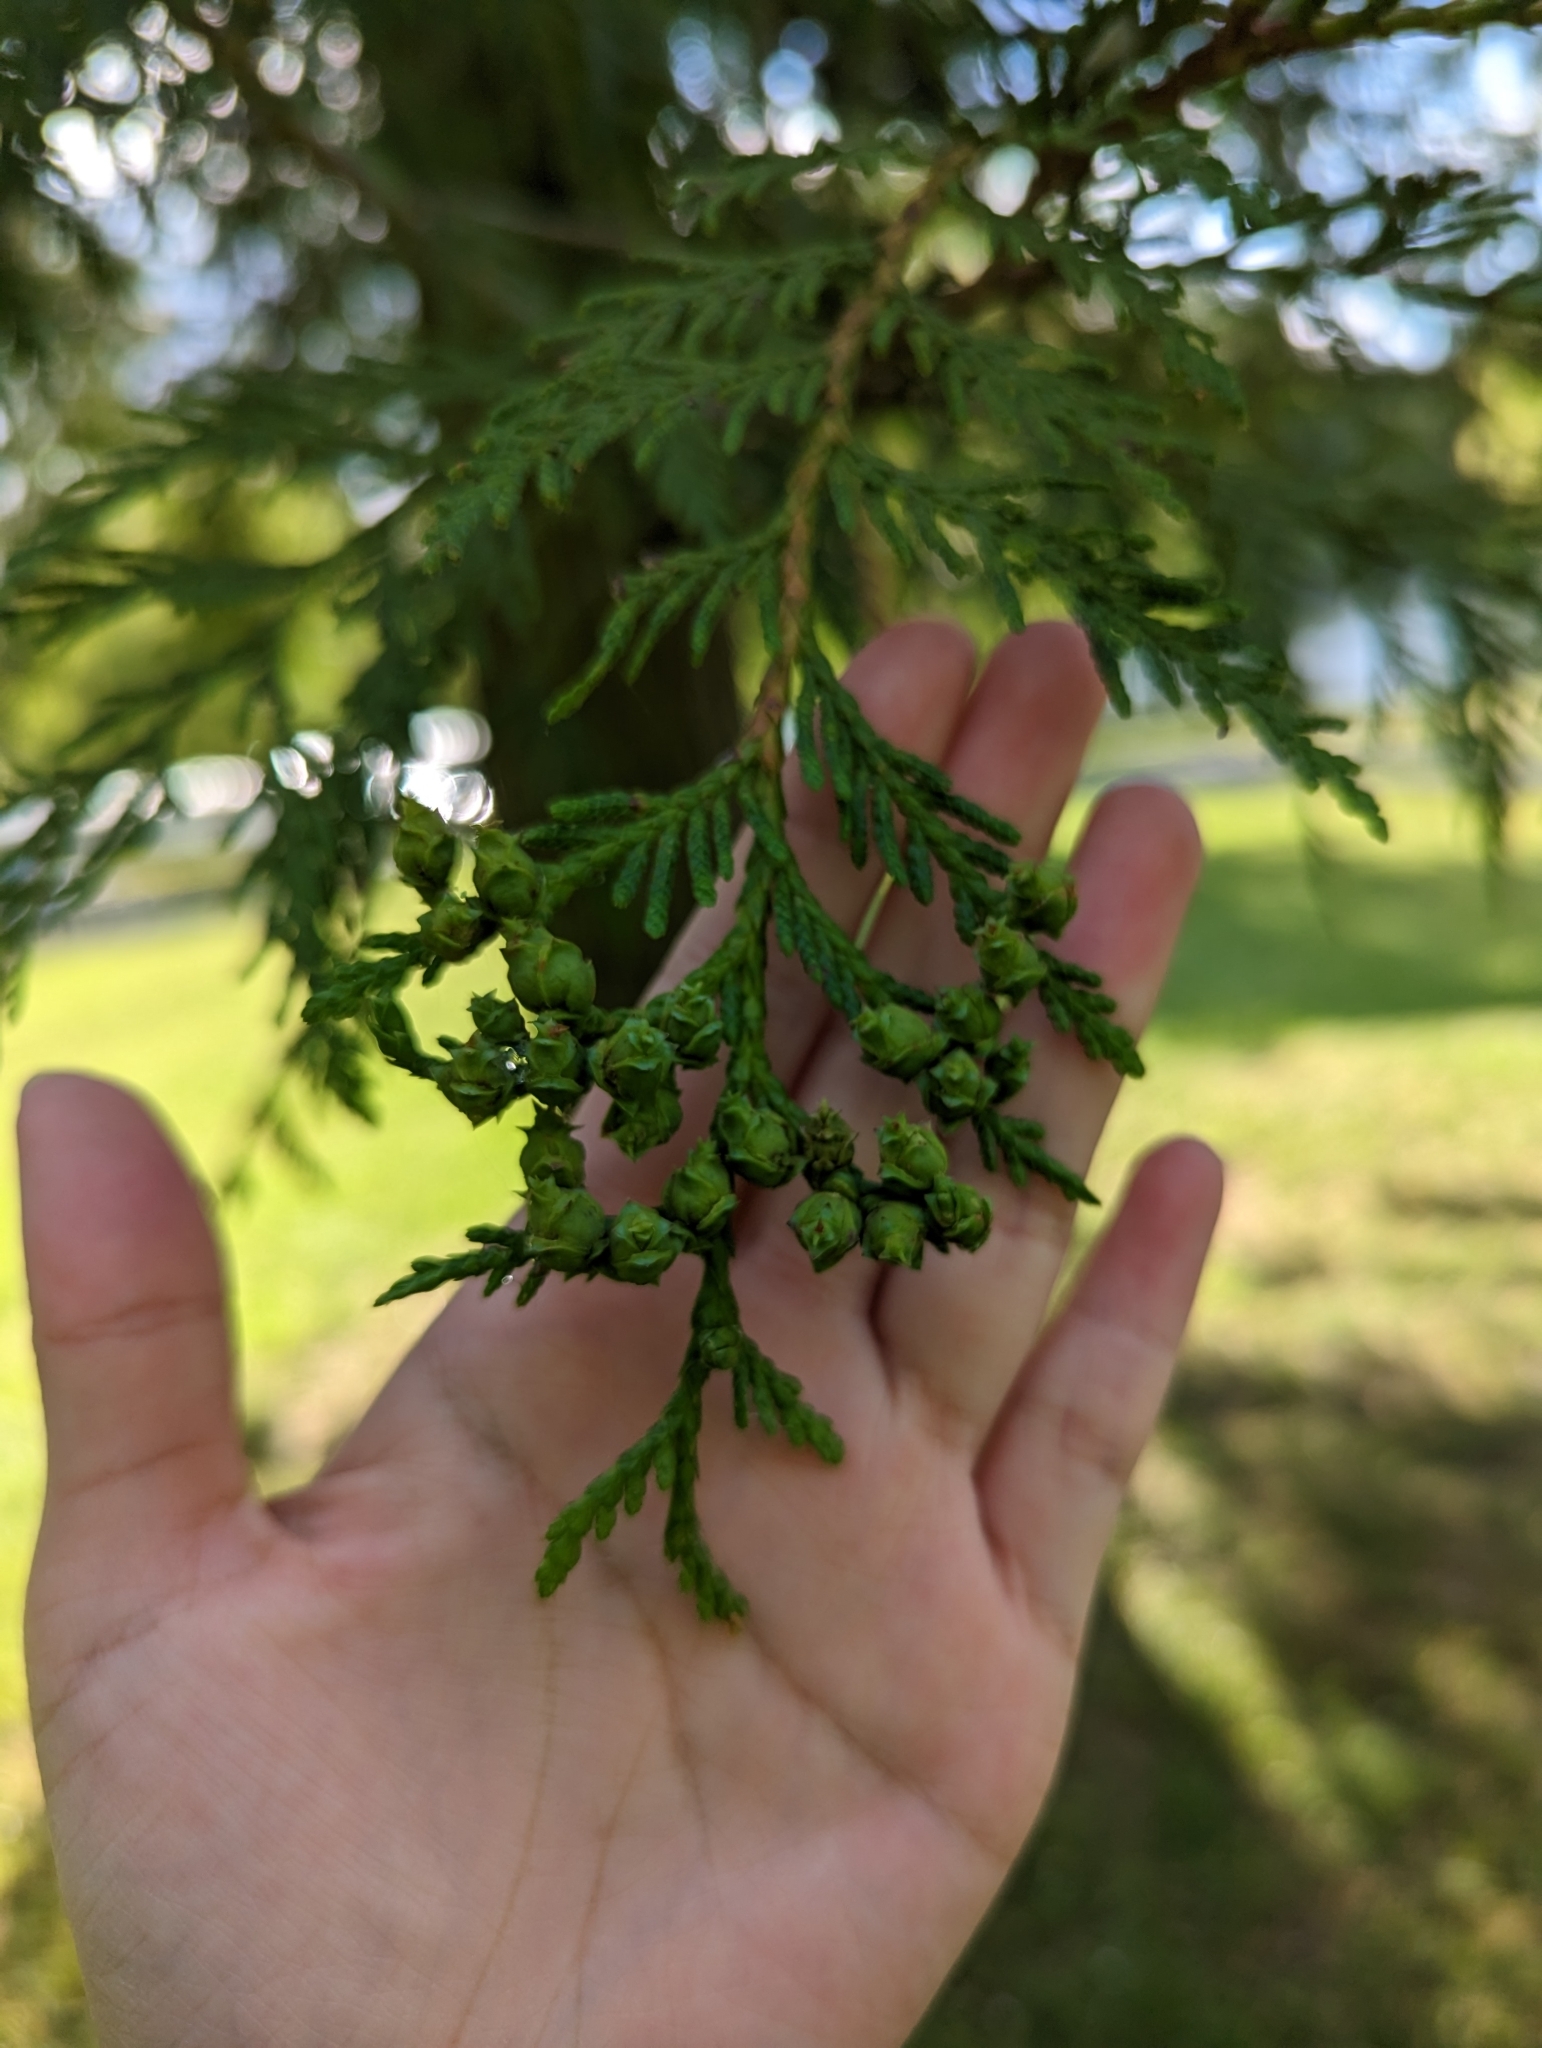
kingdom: Plantae
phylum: Tracheophyta
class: Pinopsida
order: Pinales
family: Cupressaceae
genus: Thuja
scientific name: Thuja plicata
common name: Western red-cedar
